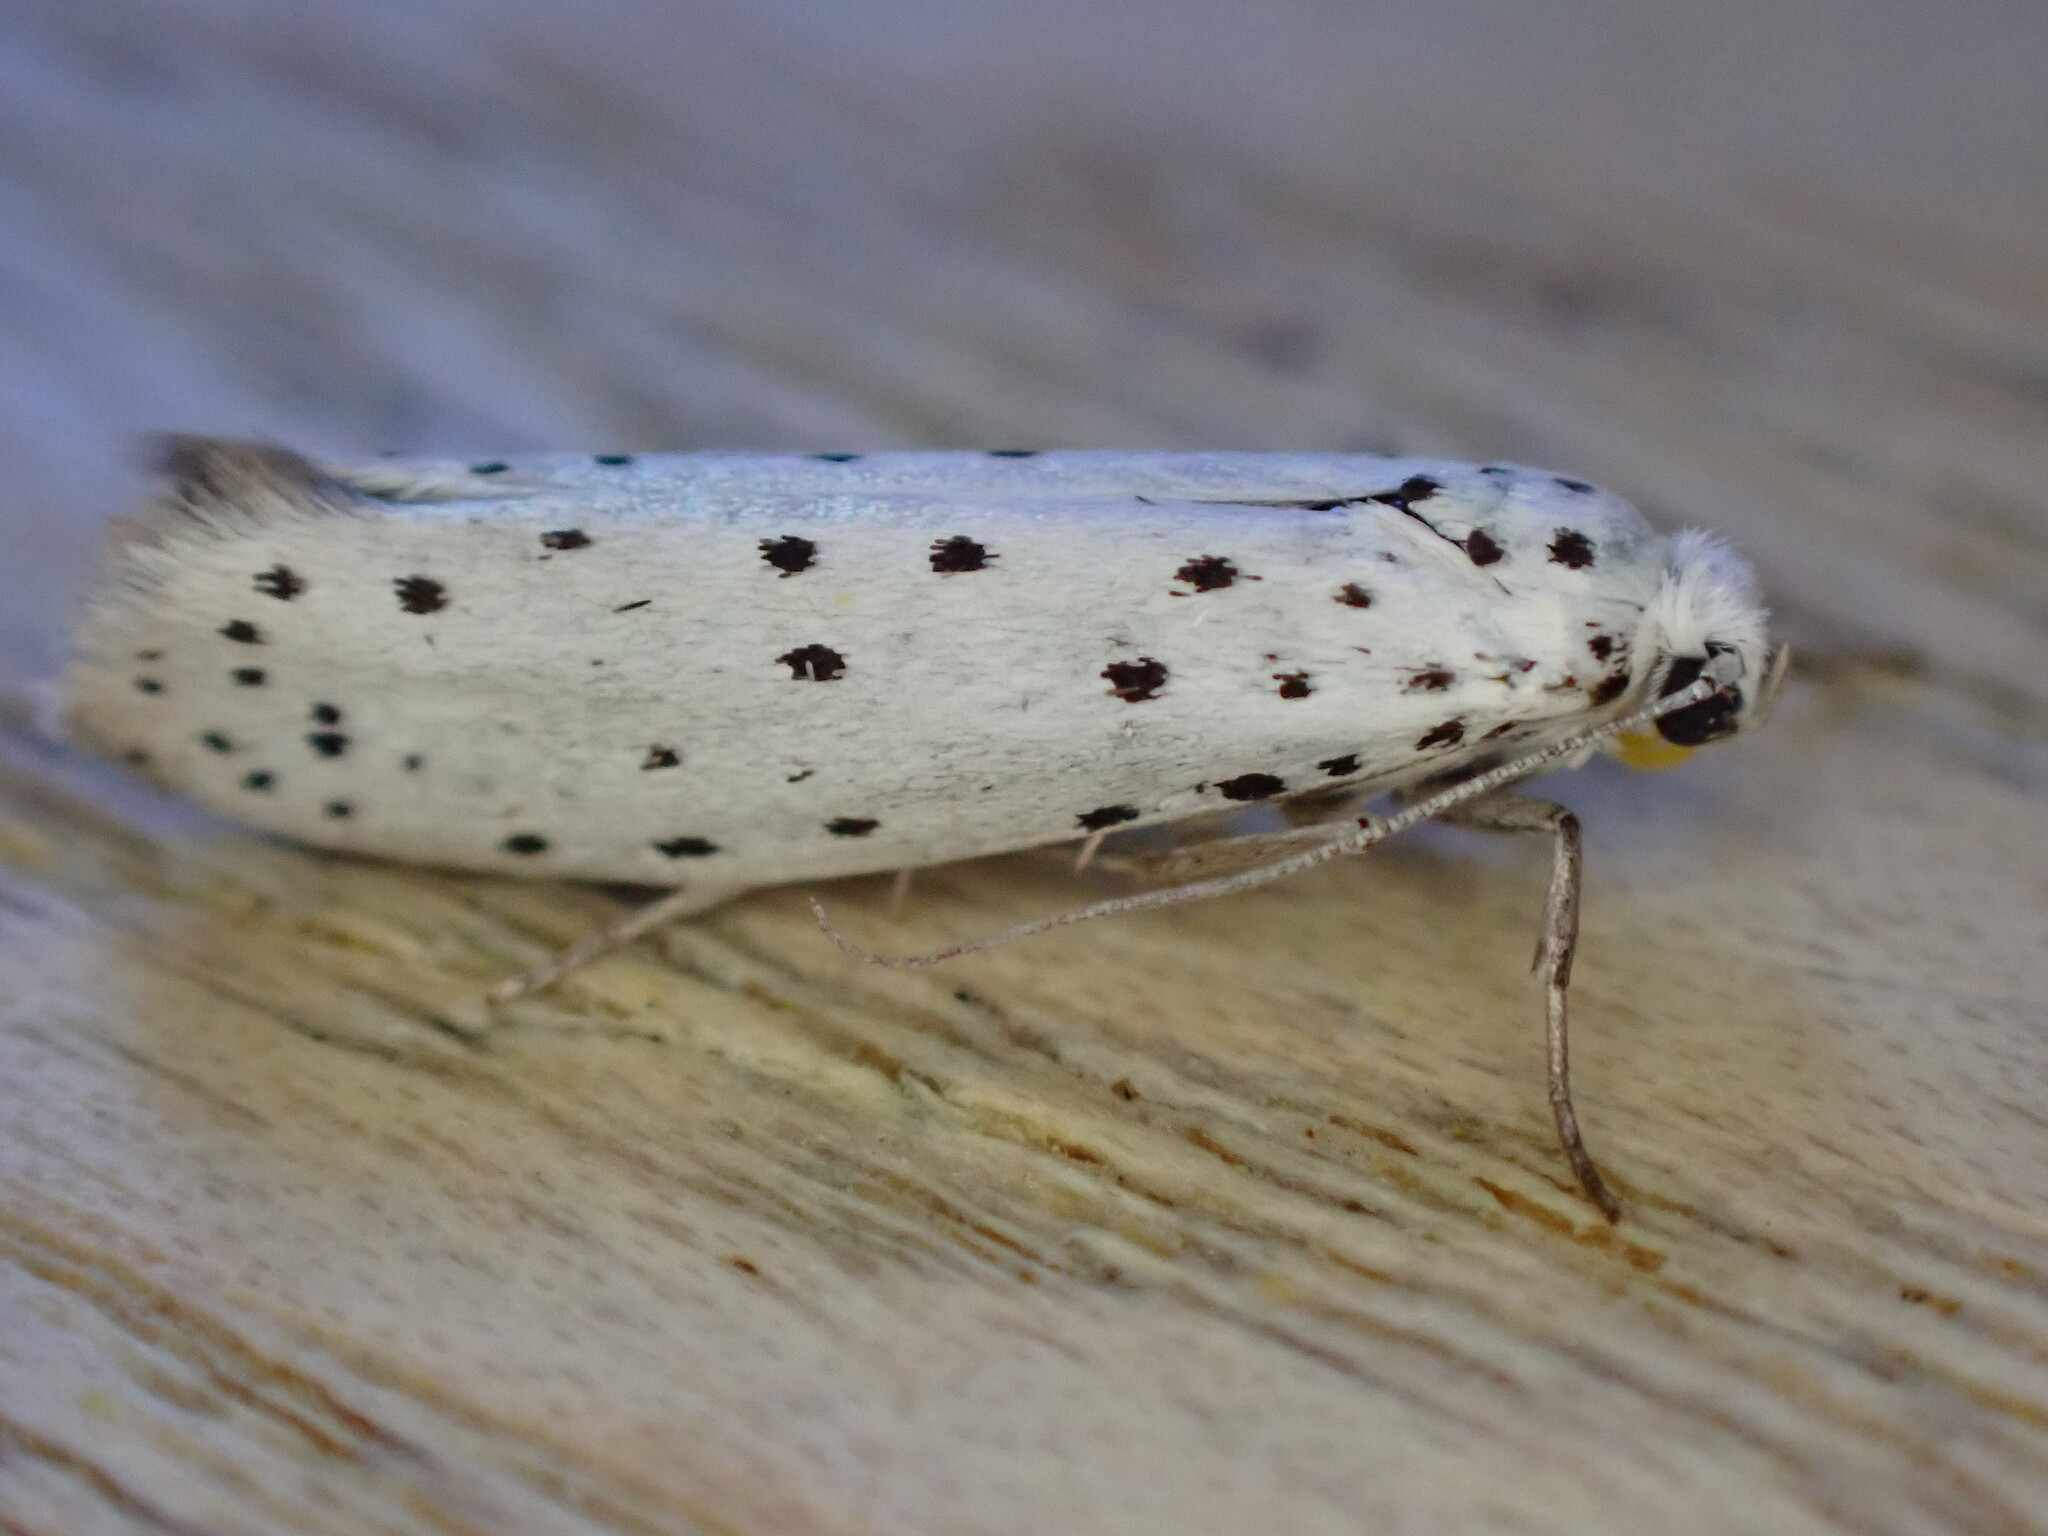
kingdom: Animalia
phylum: Arthropoda
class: Insecta
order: Lepidoptera
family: Yponomeutidae
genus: Yponomeuta
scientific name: Yponomeuta
